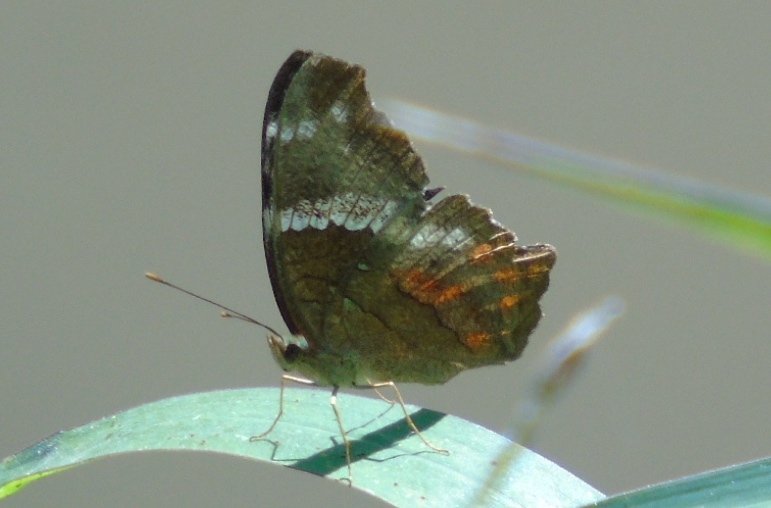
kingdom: Animalia
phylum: Arthropoda
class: Insecta
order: Lepidoptera
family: Nymphalidae
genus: Anartia
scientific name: Anartia fatima
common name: Banded peacock
